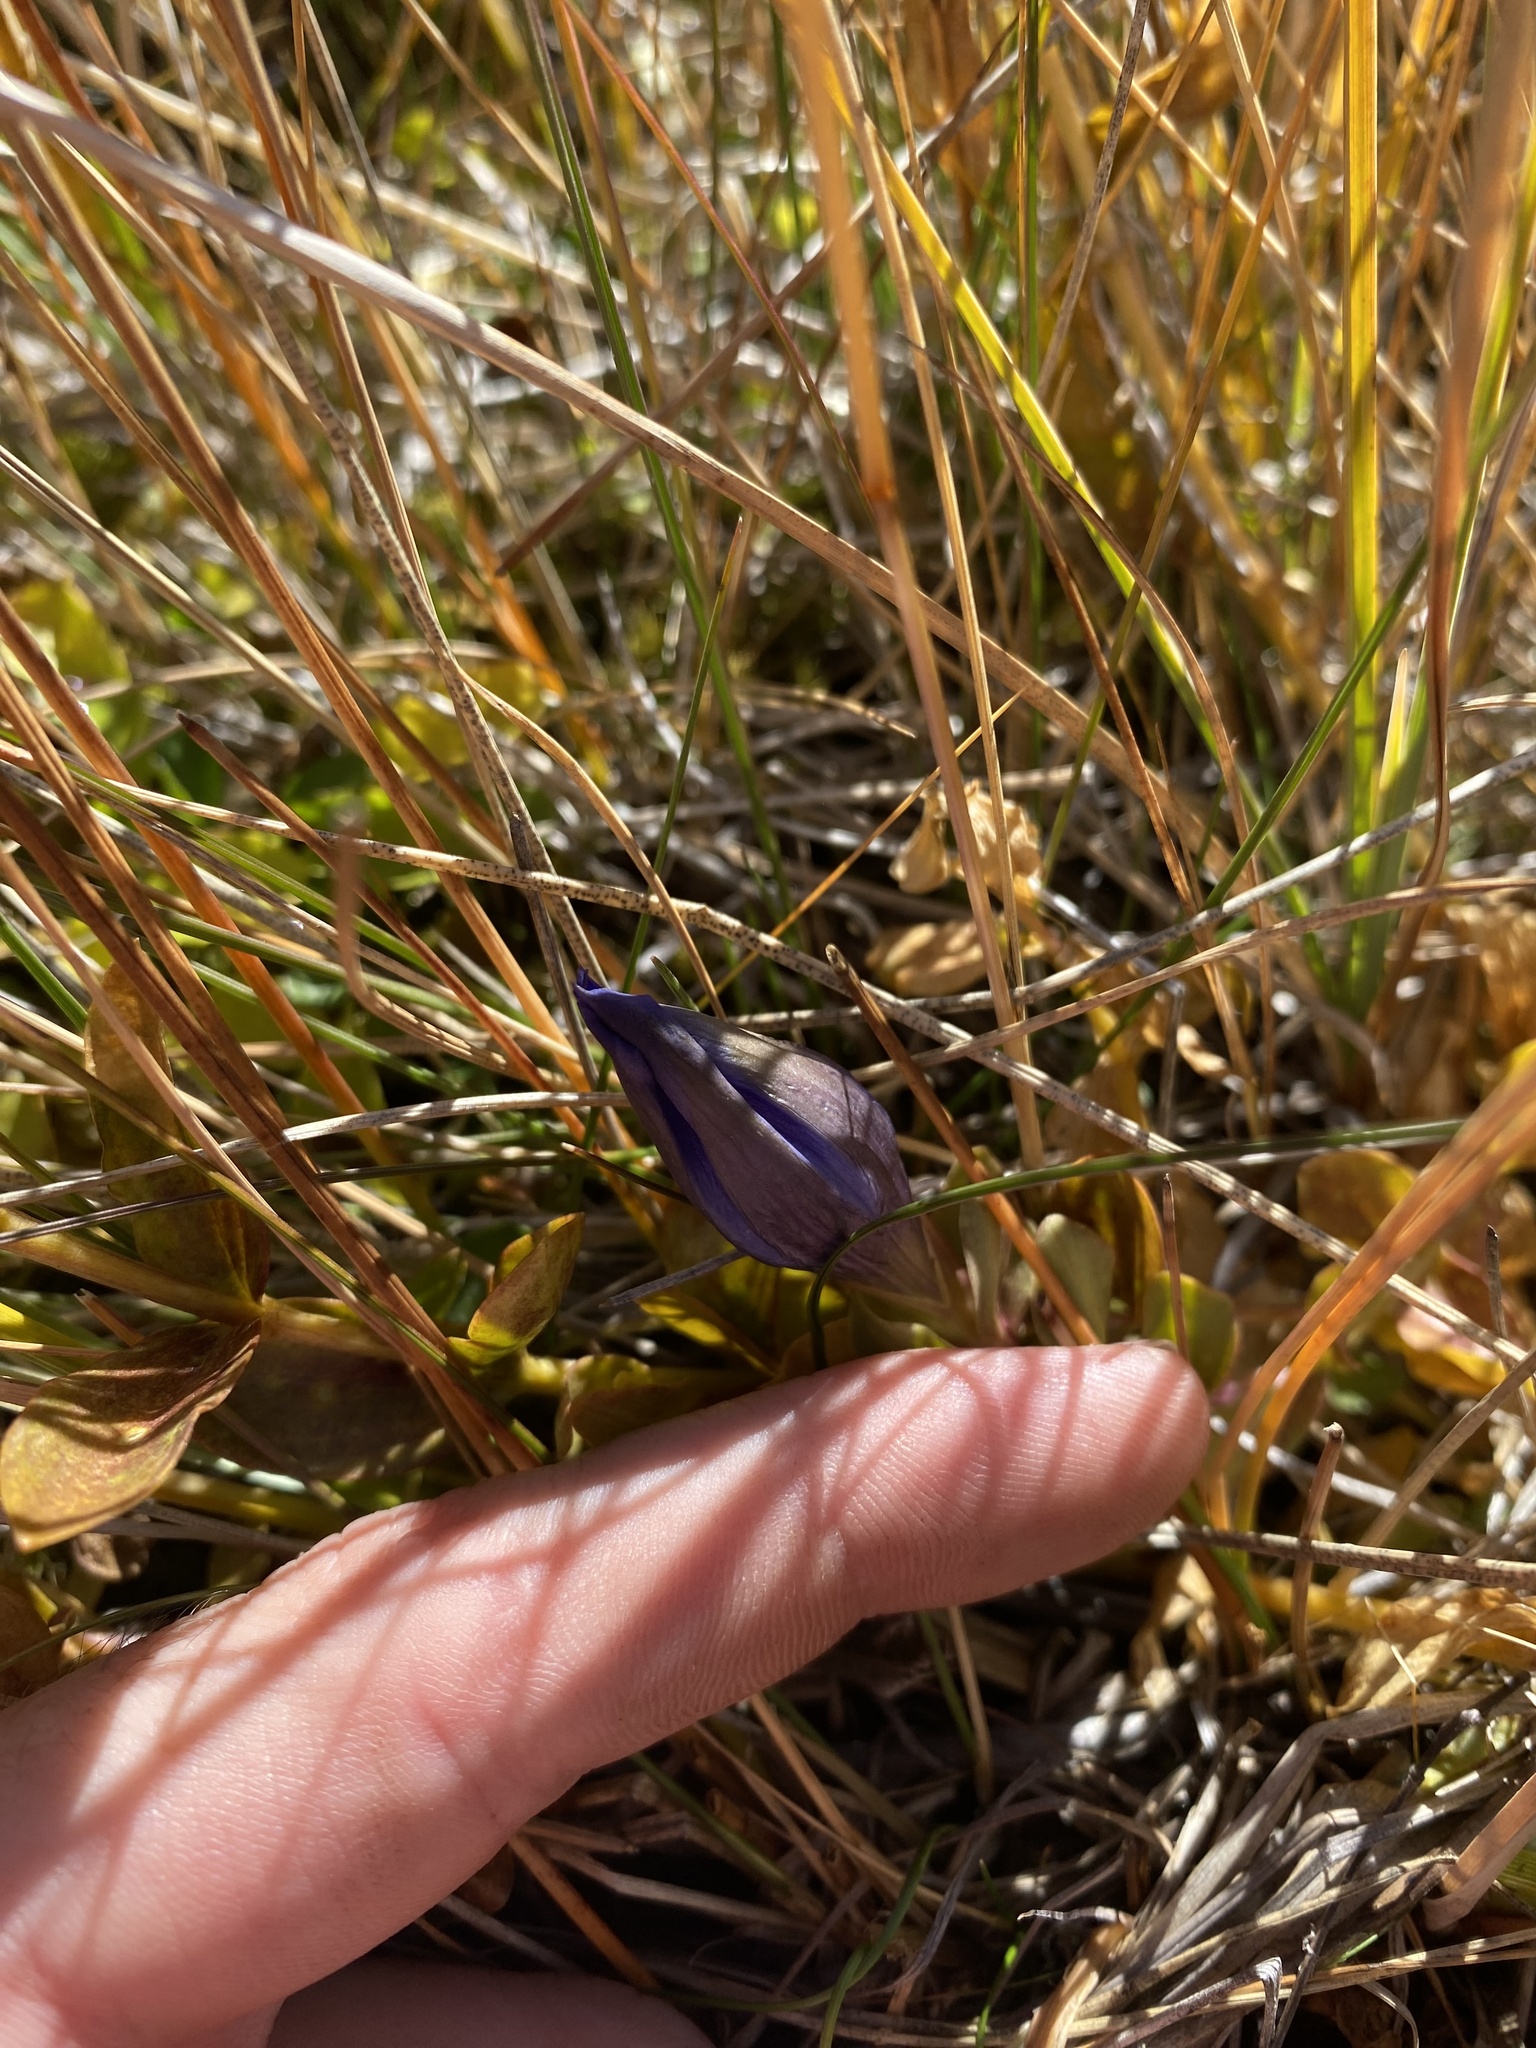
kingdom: Plantae
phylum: Tracheophyta
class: Magnoliopsida
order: Gentianales
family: Gentianaceae
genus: Gentiana
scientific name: Gentiana calycosa
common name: Rainier pleated gentian
